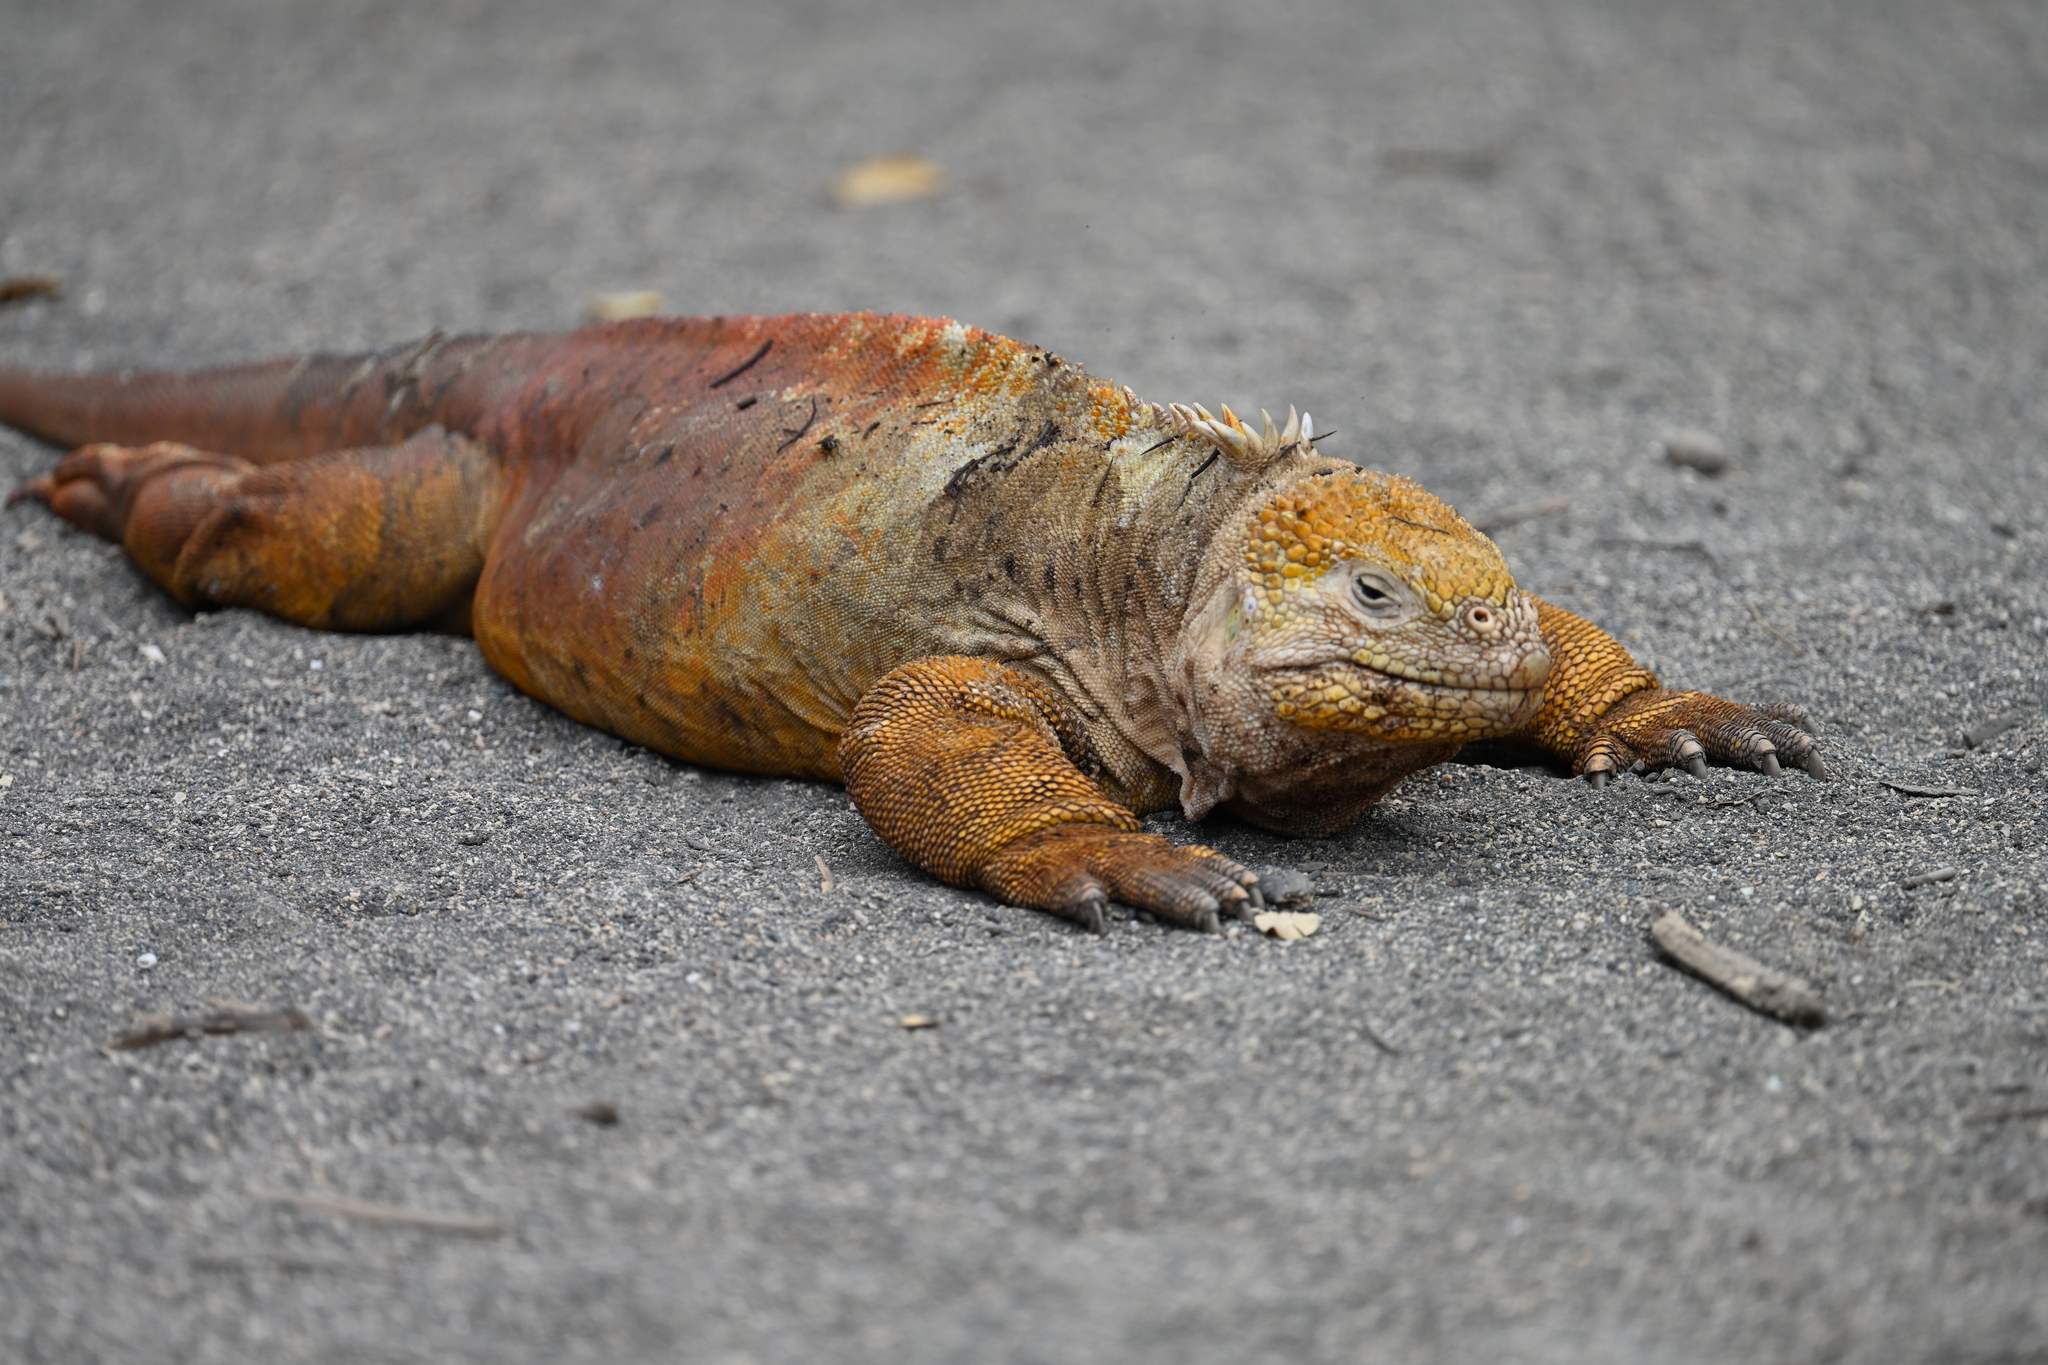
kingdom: Animalia
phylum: Chordata
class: Squamata
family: Iguanidae
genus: Conolophus
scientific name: Conolophus subcristatus
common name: Galapagos land iguana
